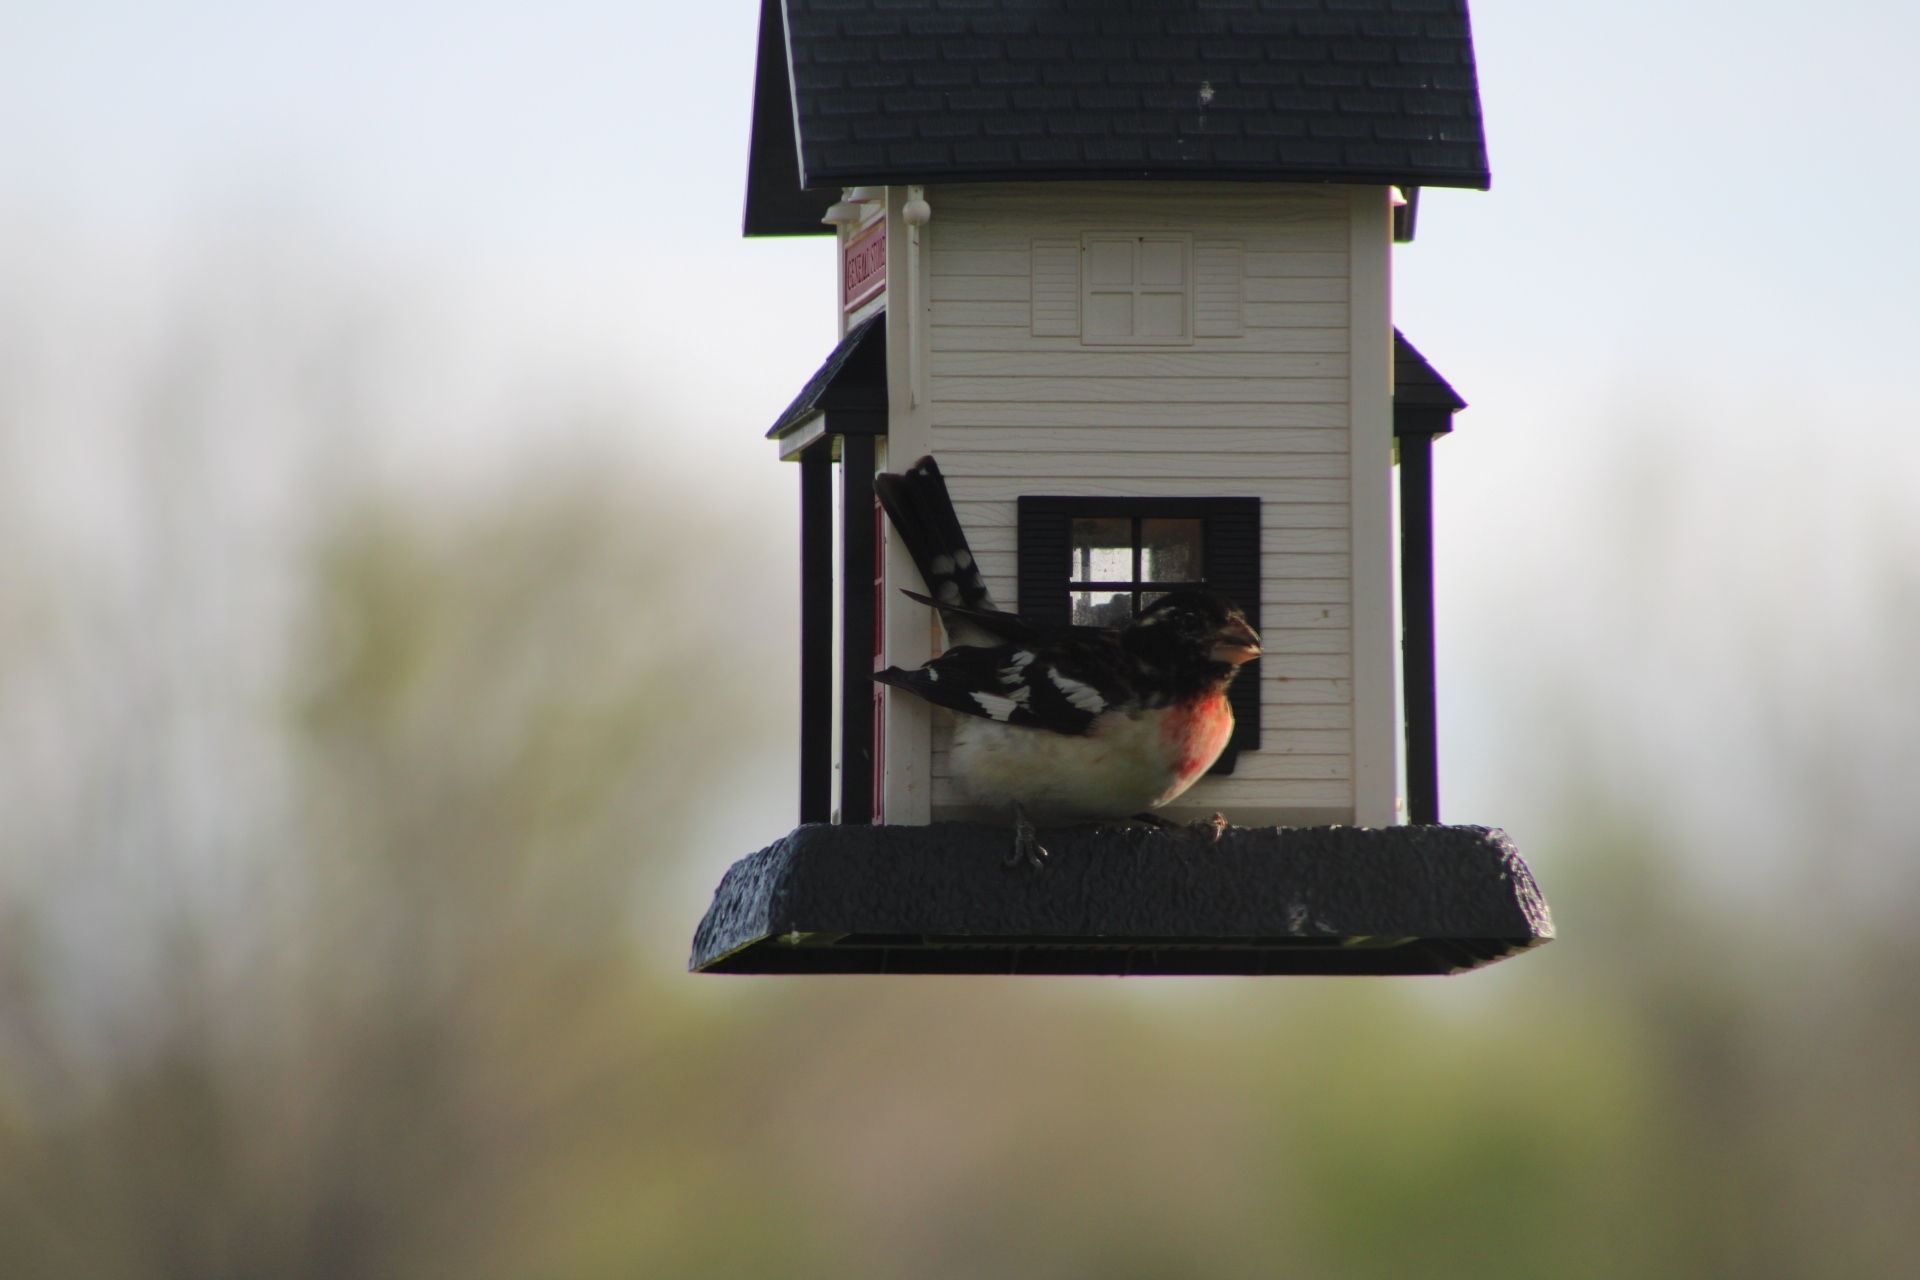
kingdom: Animalia
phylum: Chordata
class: Aves
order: Passeriformes
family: Cardinalidae
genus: Pheucticus
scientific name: Pheucticus ludovicianus
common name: Rose-breasted grosbeak
